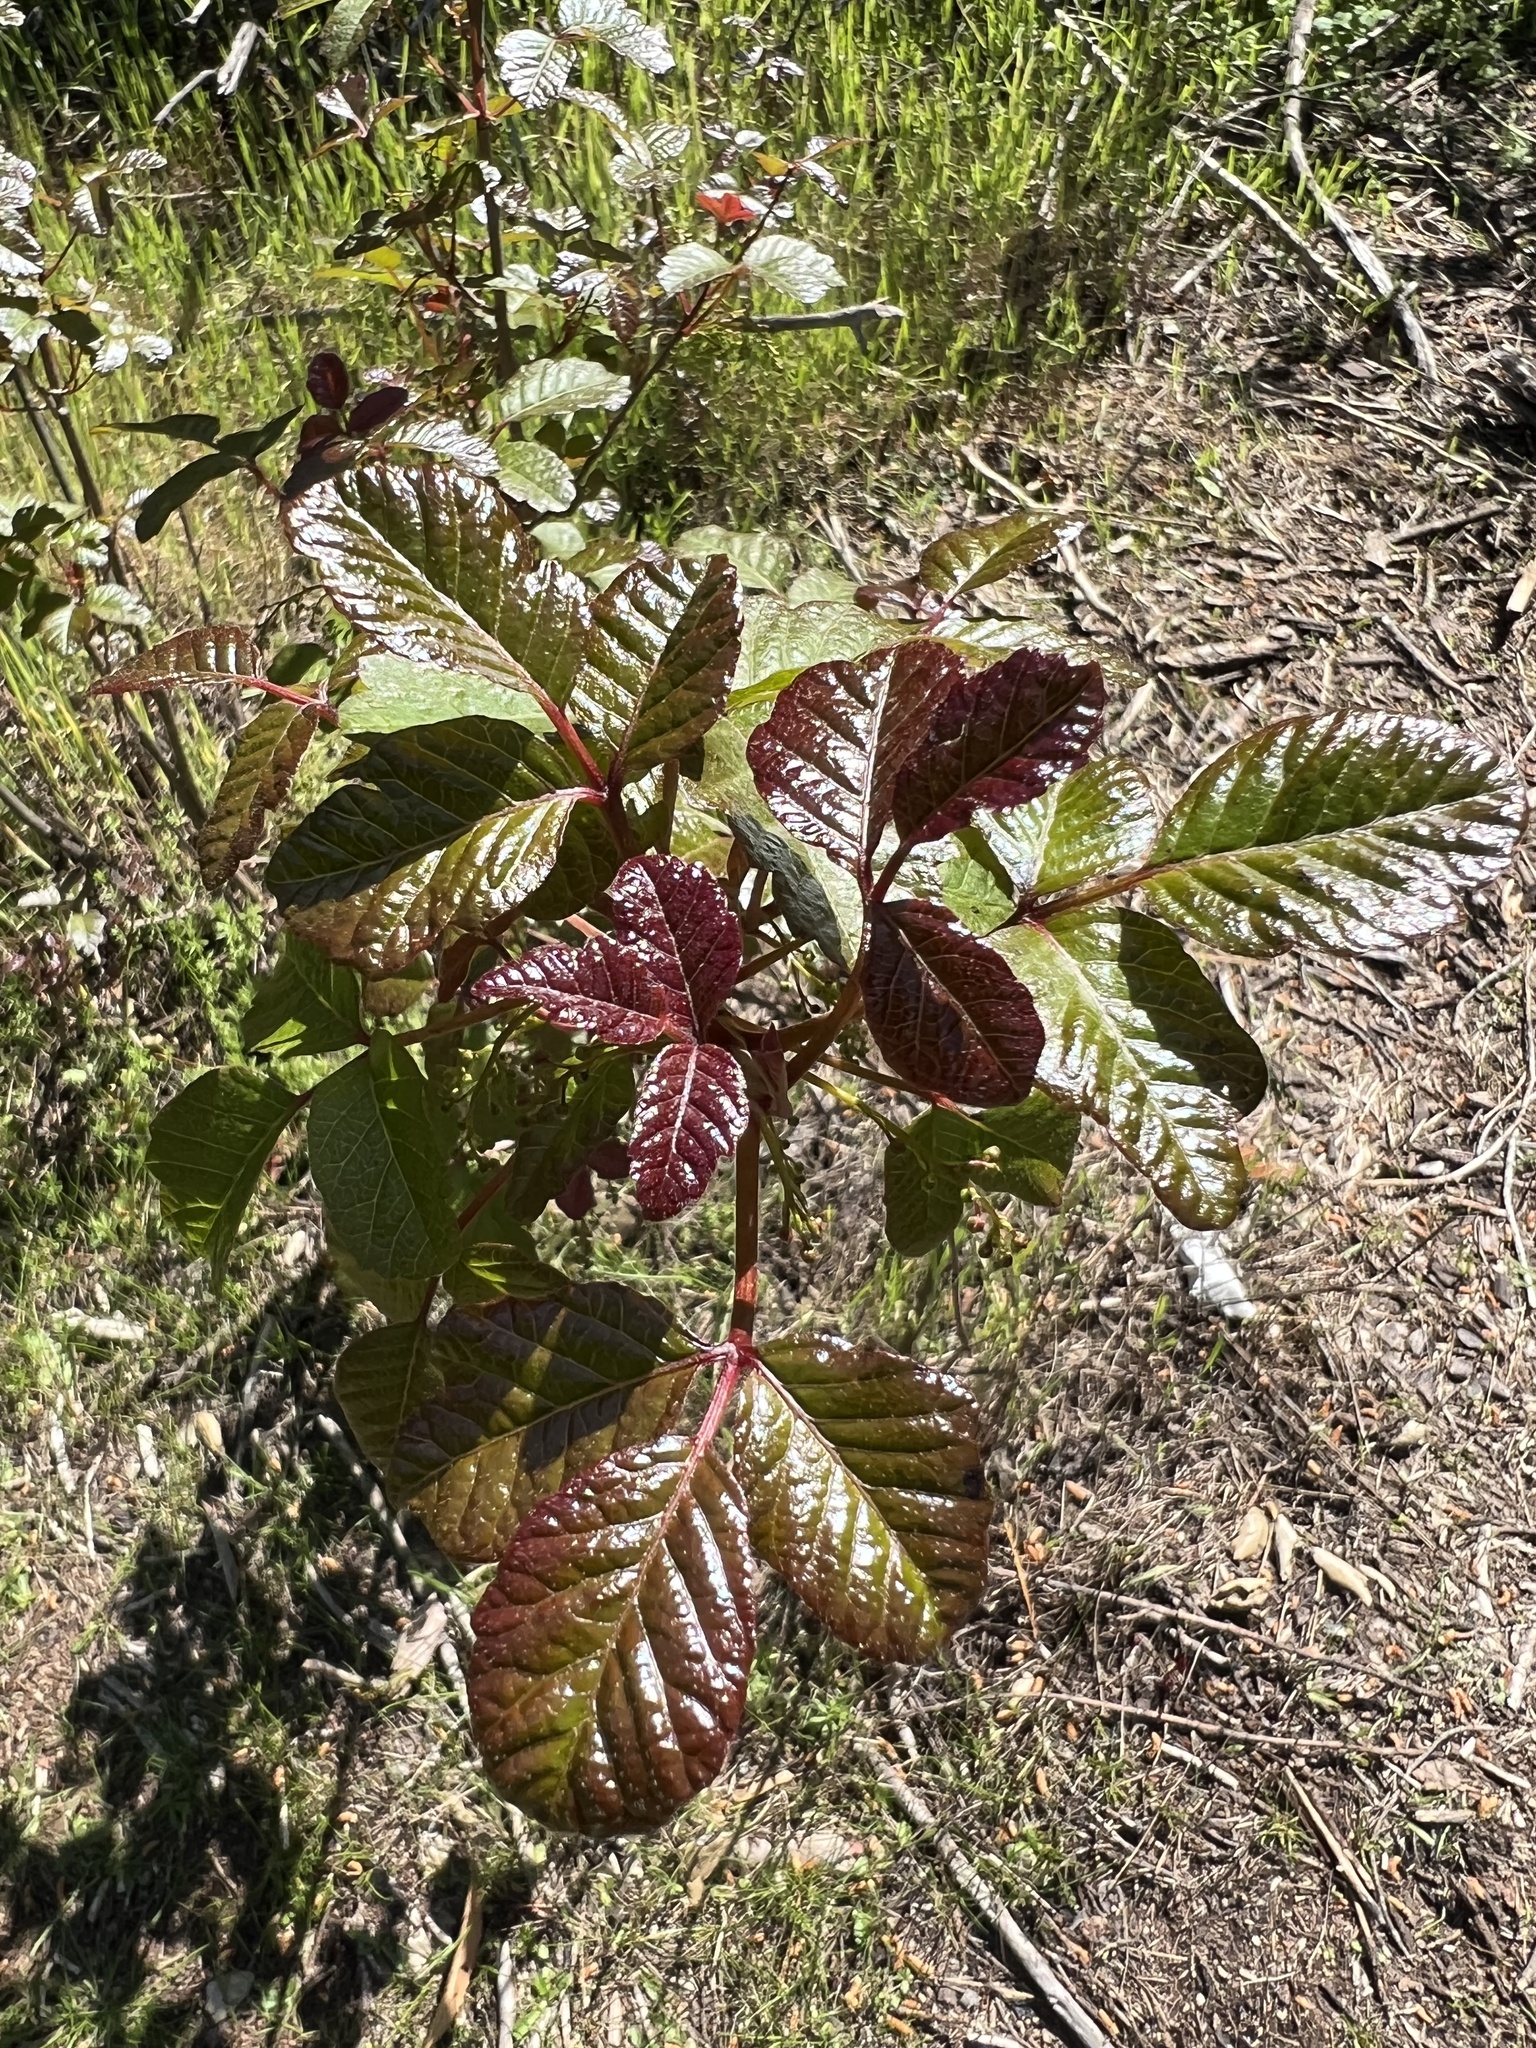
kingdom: Plantae
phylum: Tracheophyta
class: Magnoliopsida
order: Sapindales
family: Anacardiaceae
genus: Toxicodendron
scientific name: Toxicodendron diversilobum
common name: Pacific poison-oak
